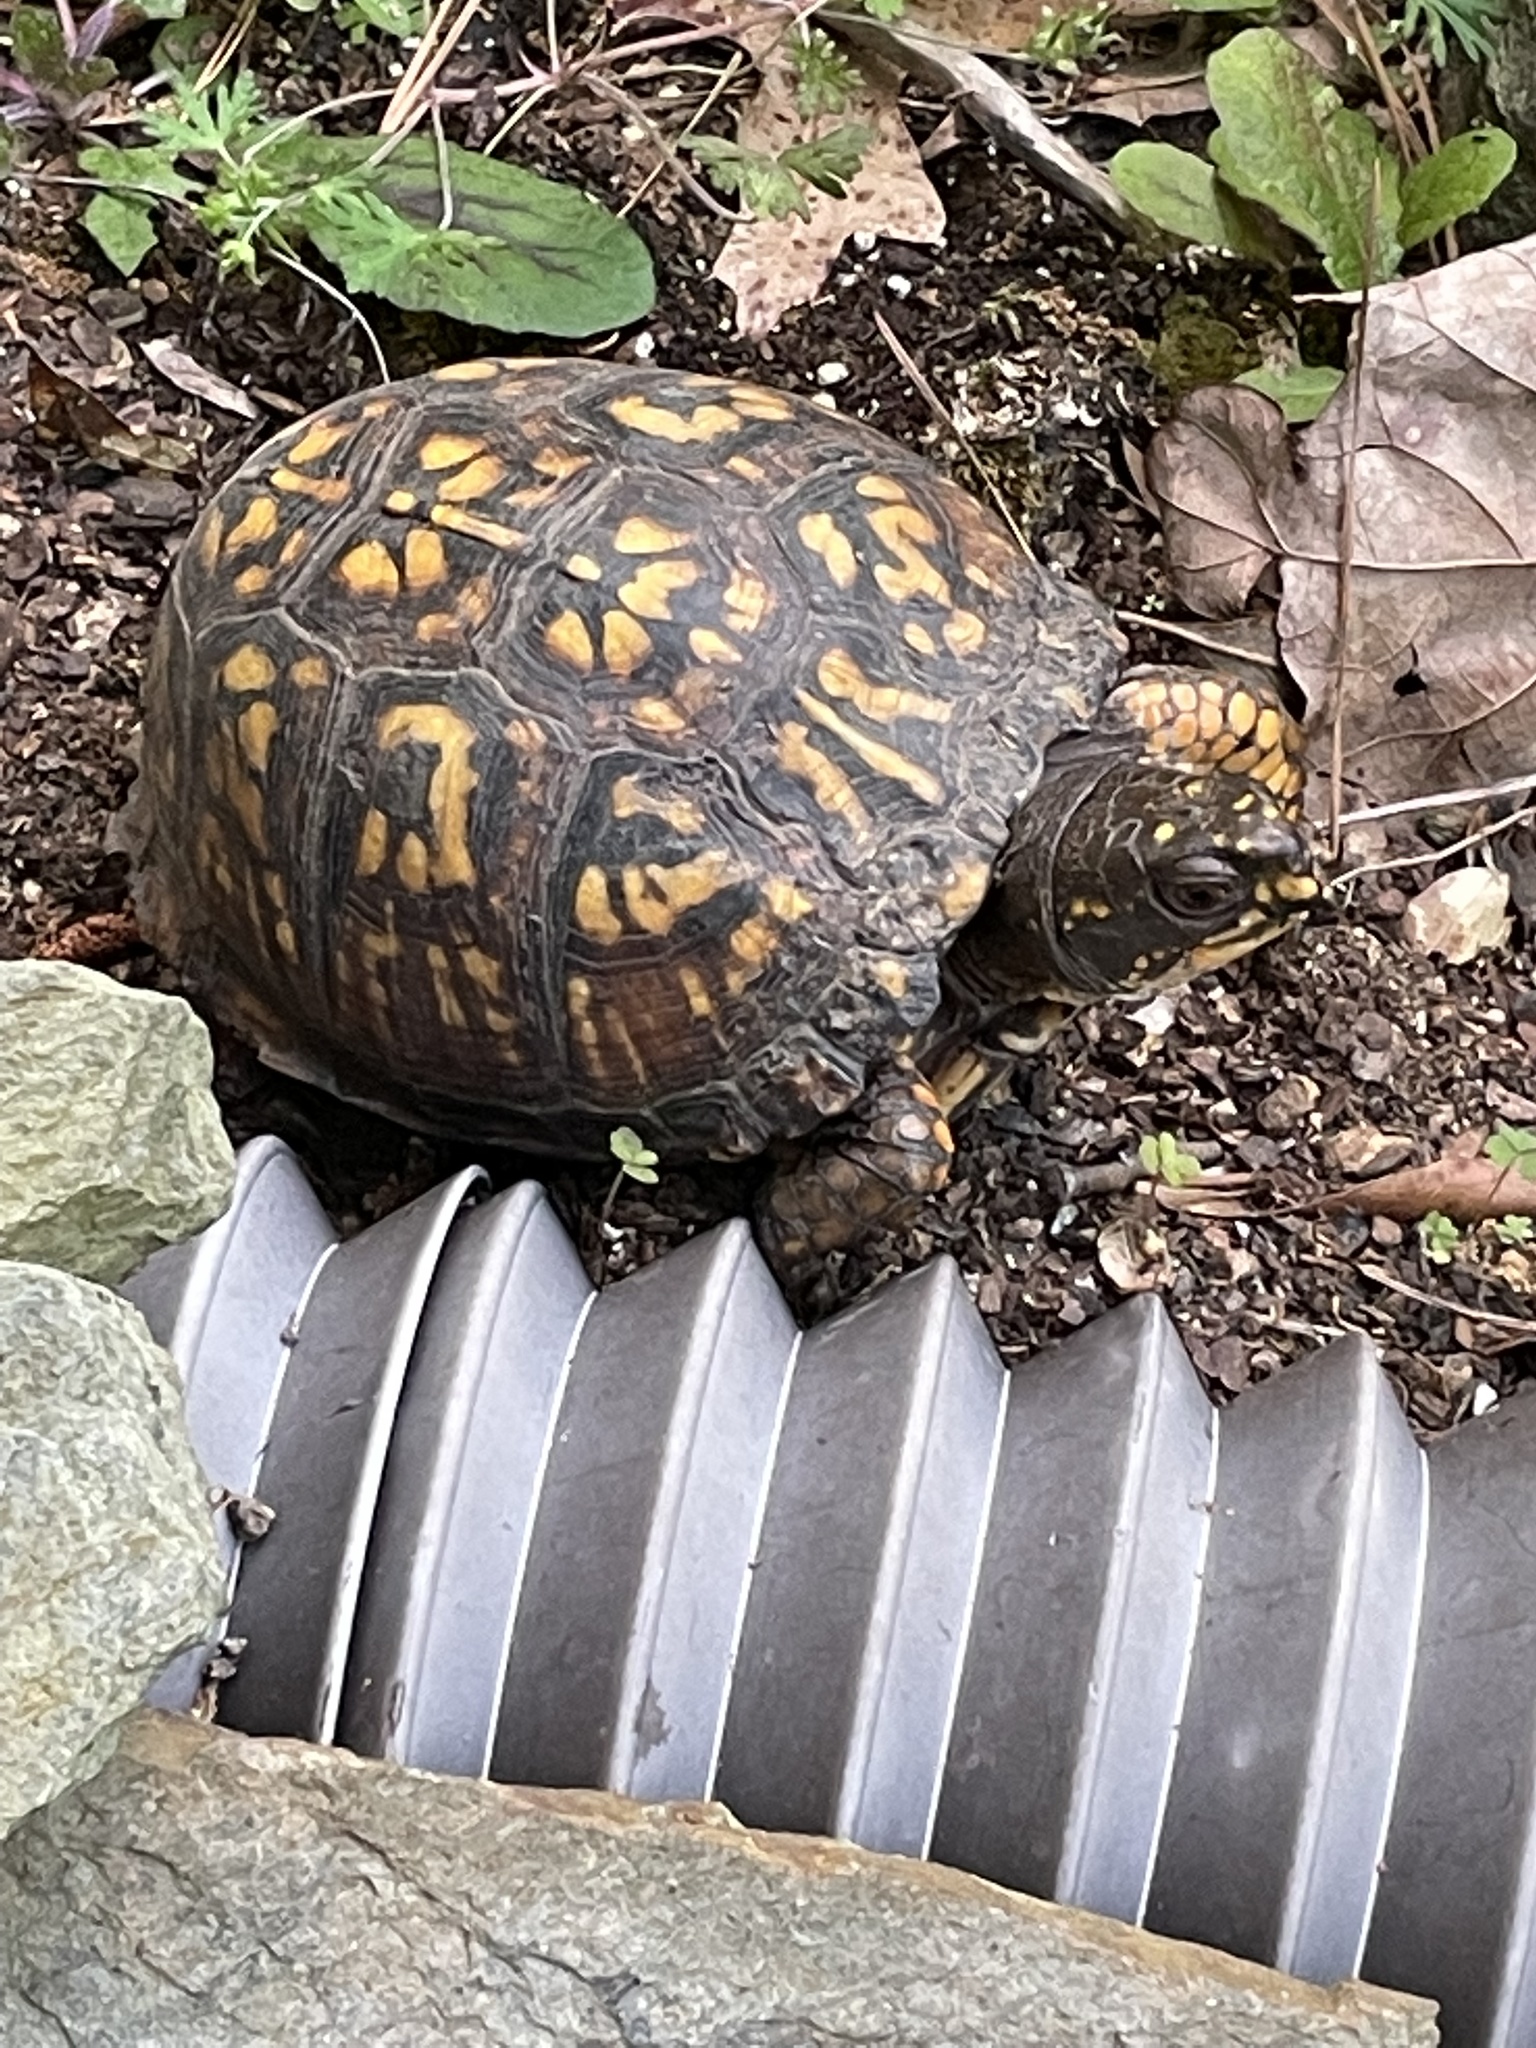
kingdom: Animalia
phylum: Chordata
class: Testudines
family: Emydidae
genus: Terrapene
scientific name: Terrapene carolina
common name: Common box turtle
